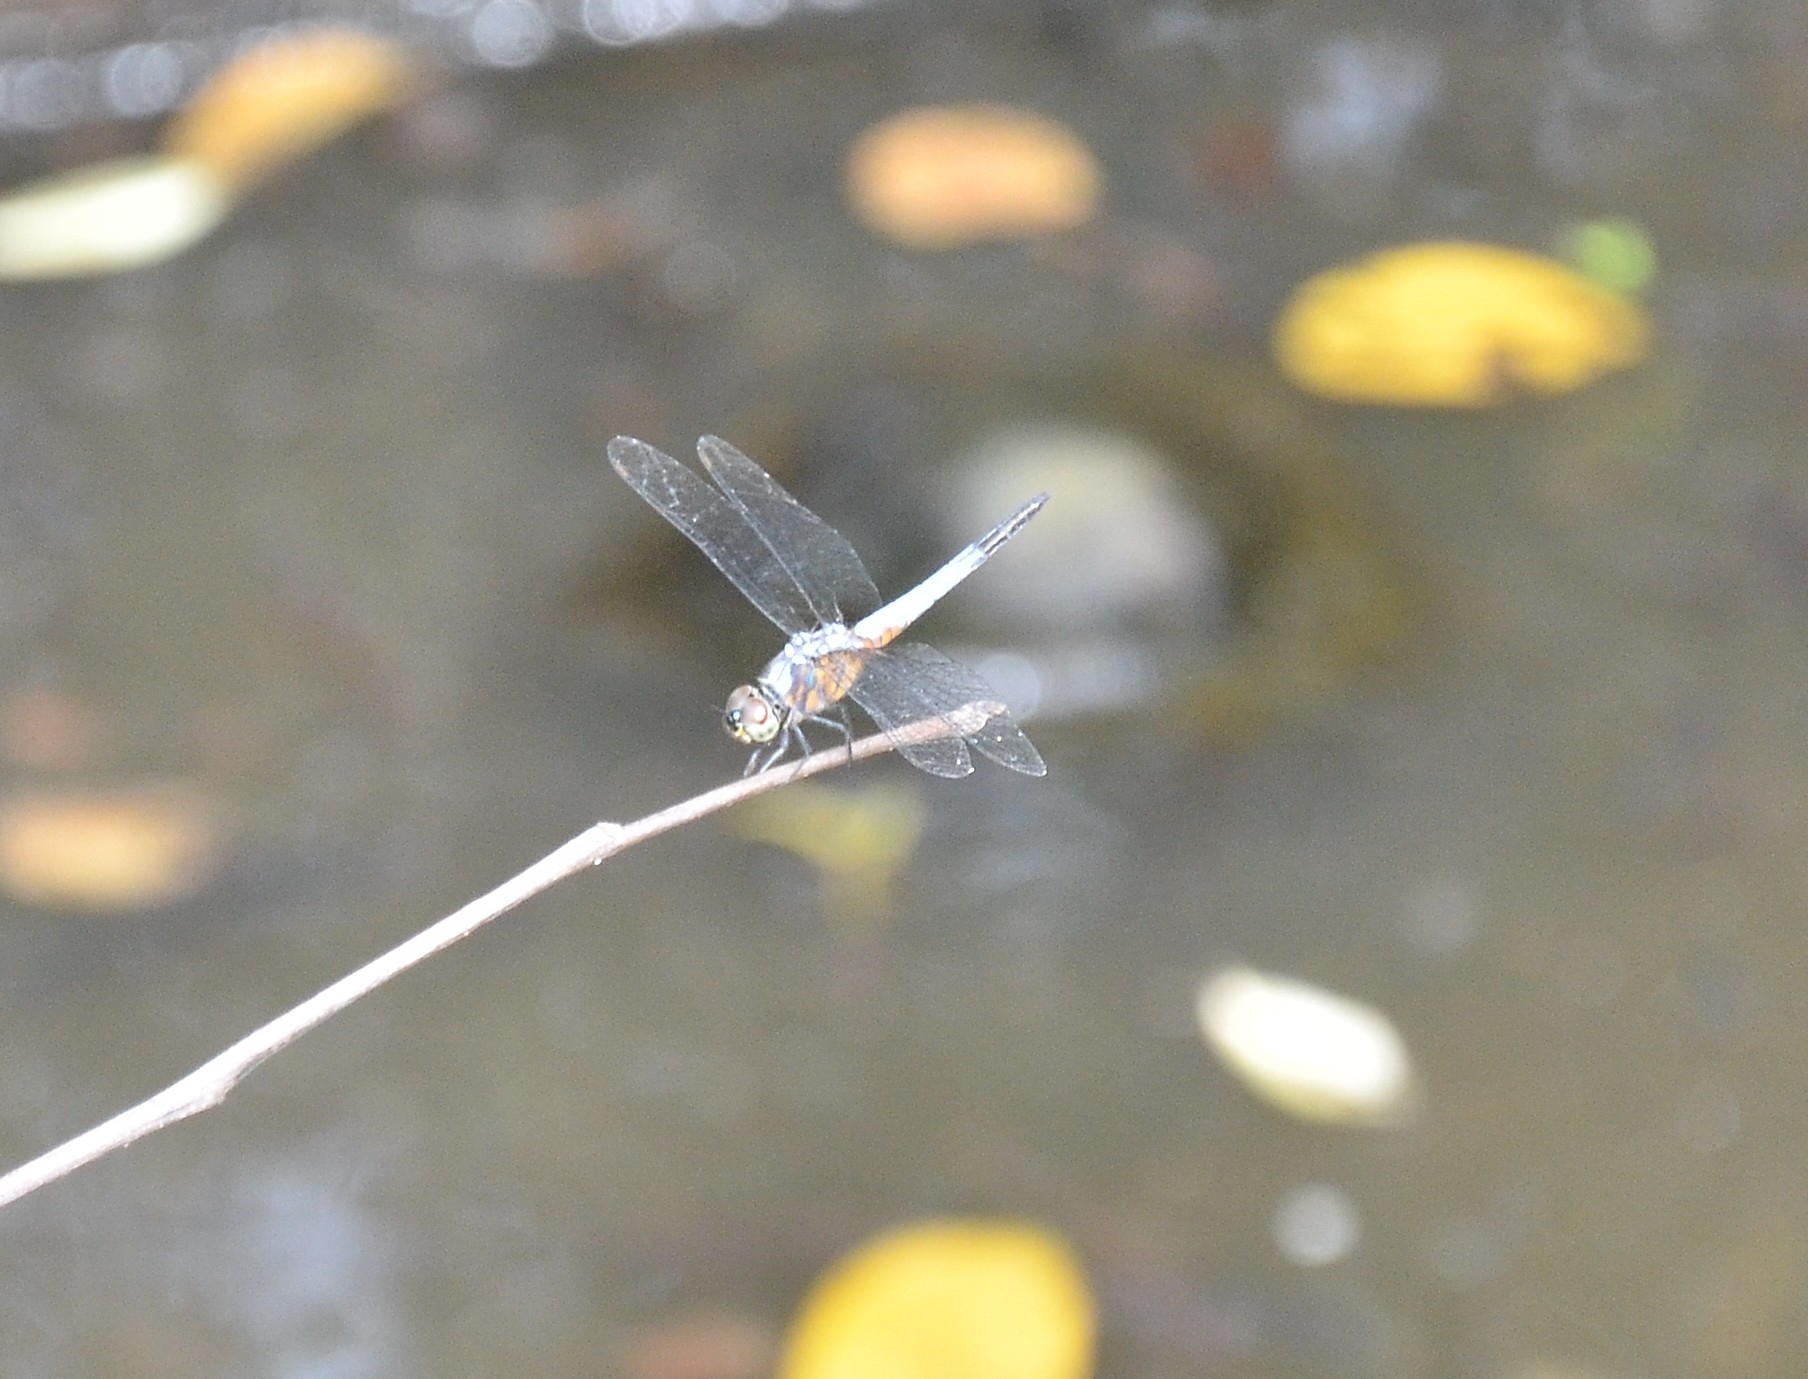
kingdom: Animalia
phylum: Arthropoda
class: Insecta
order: Odonata
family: Libellulidae
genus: Brachydiplax
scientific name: Brachydiplax chalybea
